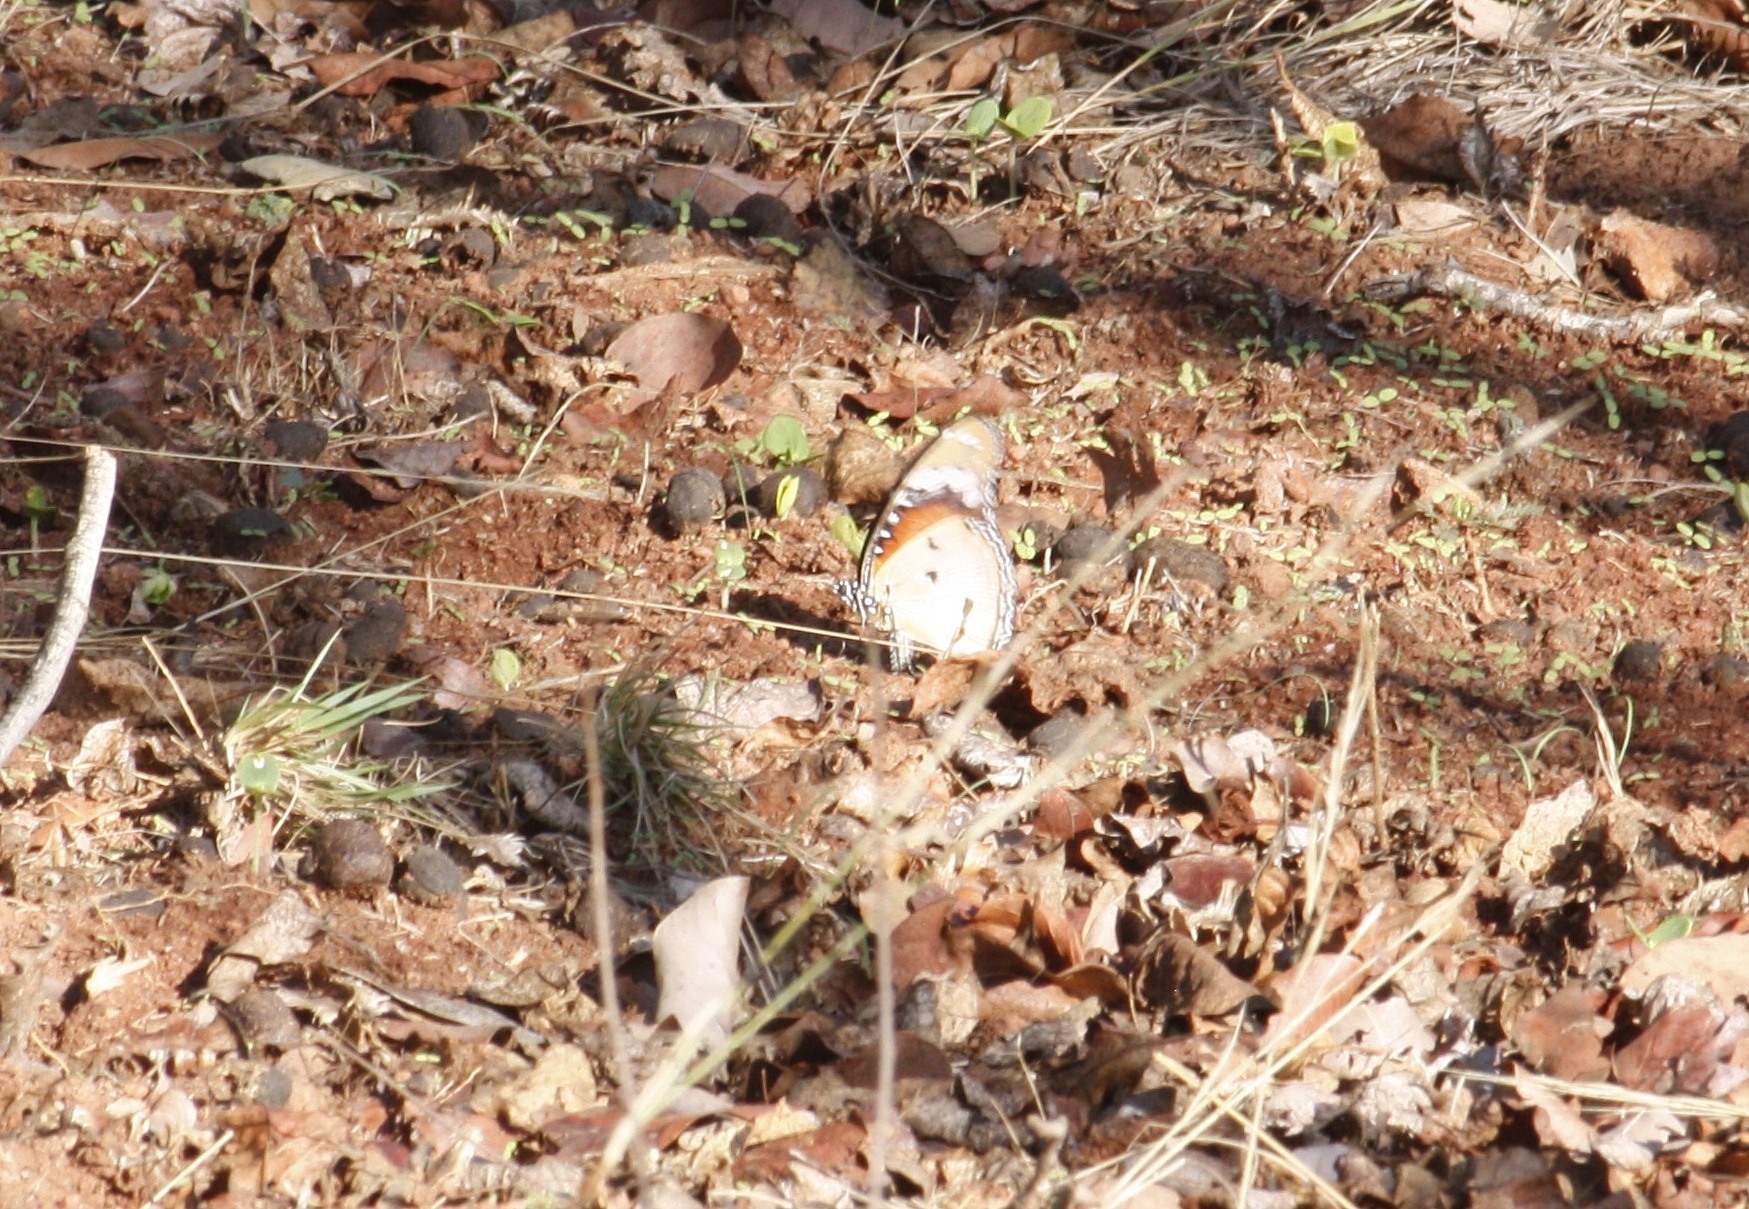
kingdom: Animalia
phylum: Arthropoda
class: Insecta
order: Lepidoptera
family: Nymphalidae
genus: Hypolimnas
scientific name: Hypolimnas misippus
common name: False plain tiger
